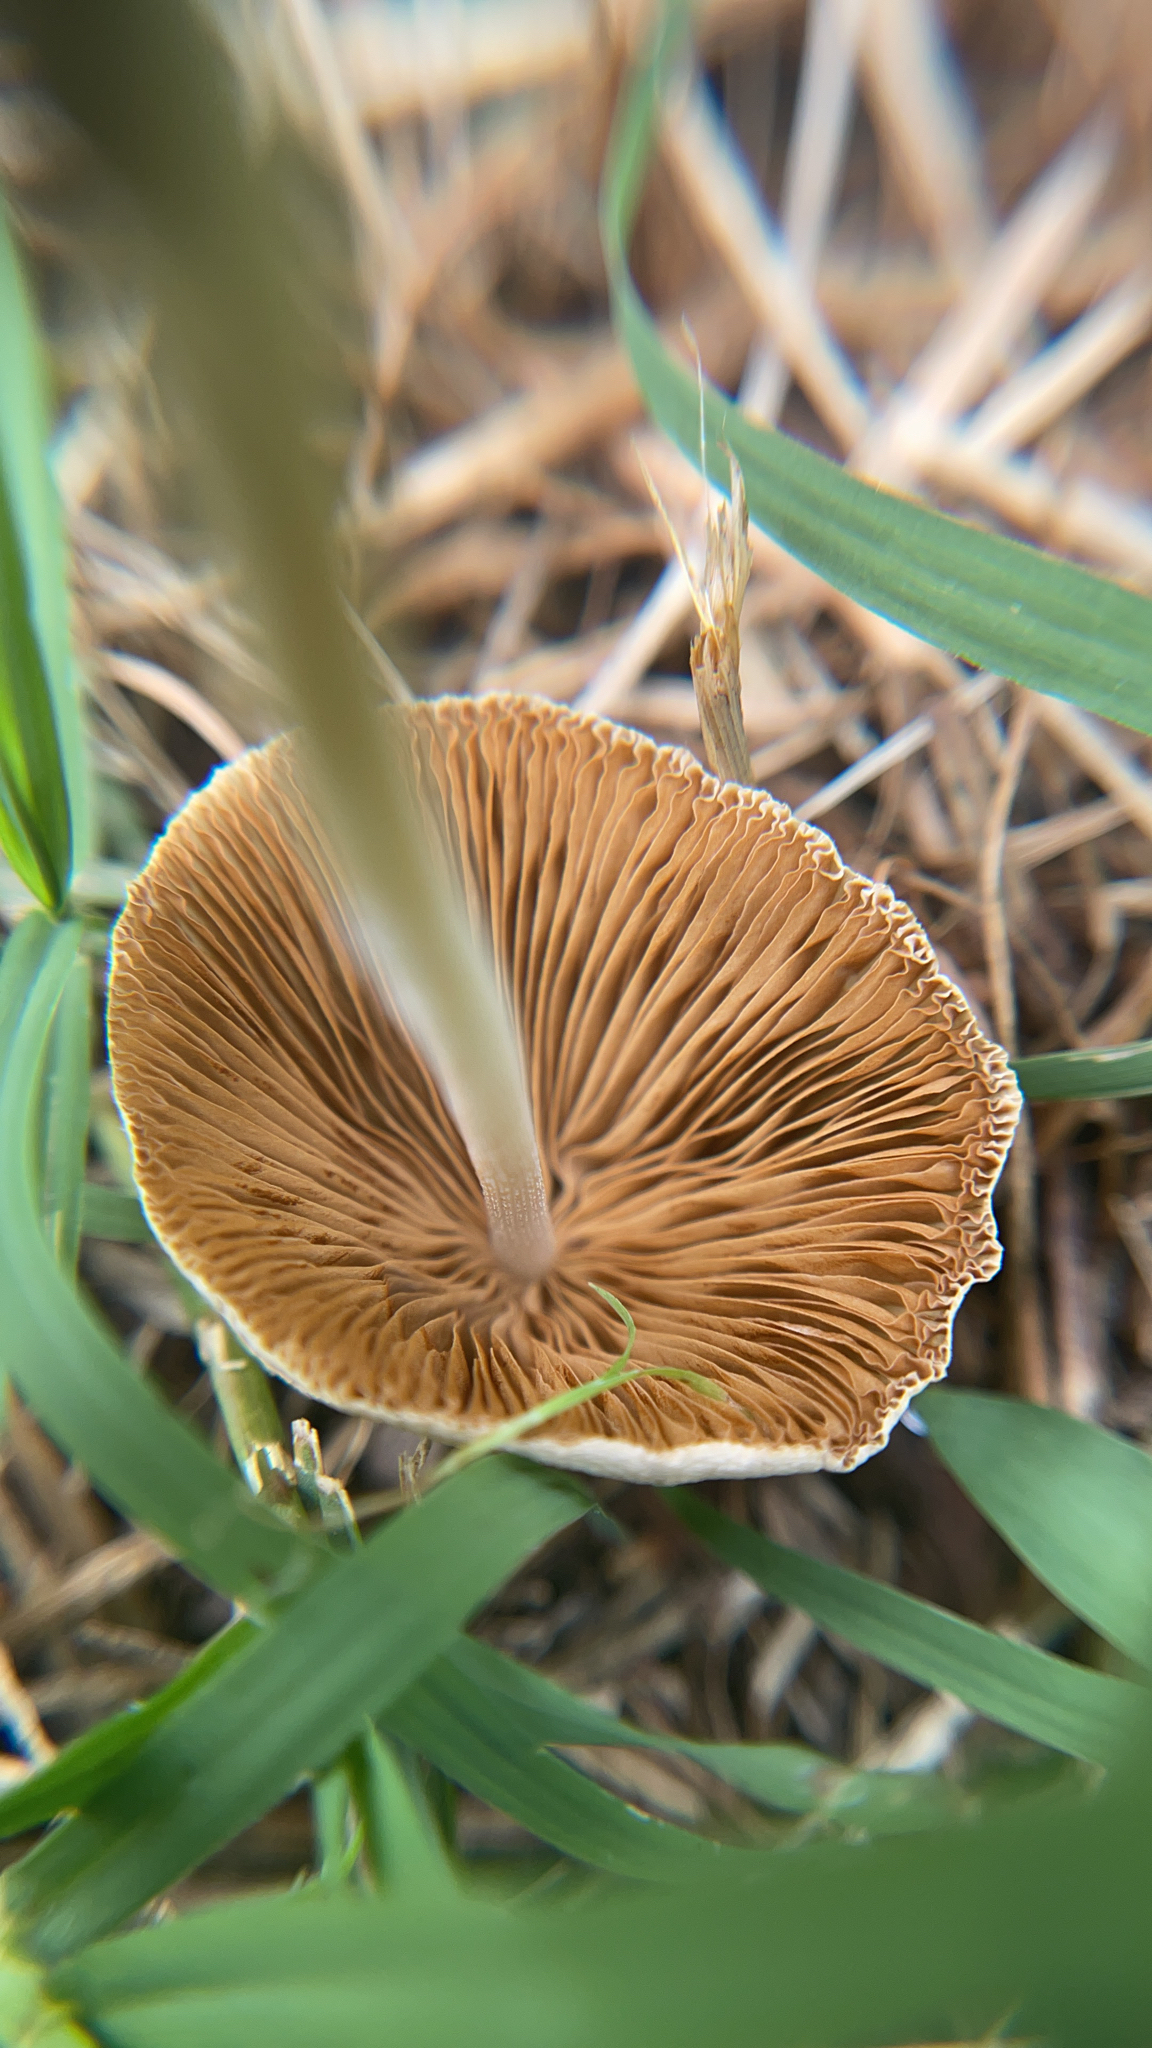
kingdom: Fungi
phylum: Basidiomycota
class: Agaricomycetes
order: Agaricales
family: Bolbitiaceae
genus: Conocybe
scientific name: Conocybe apala
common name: Milky conecap
